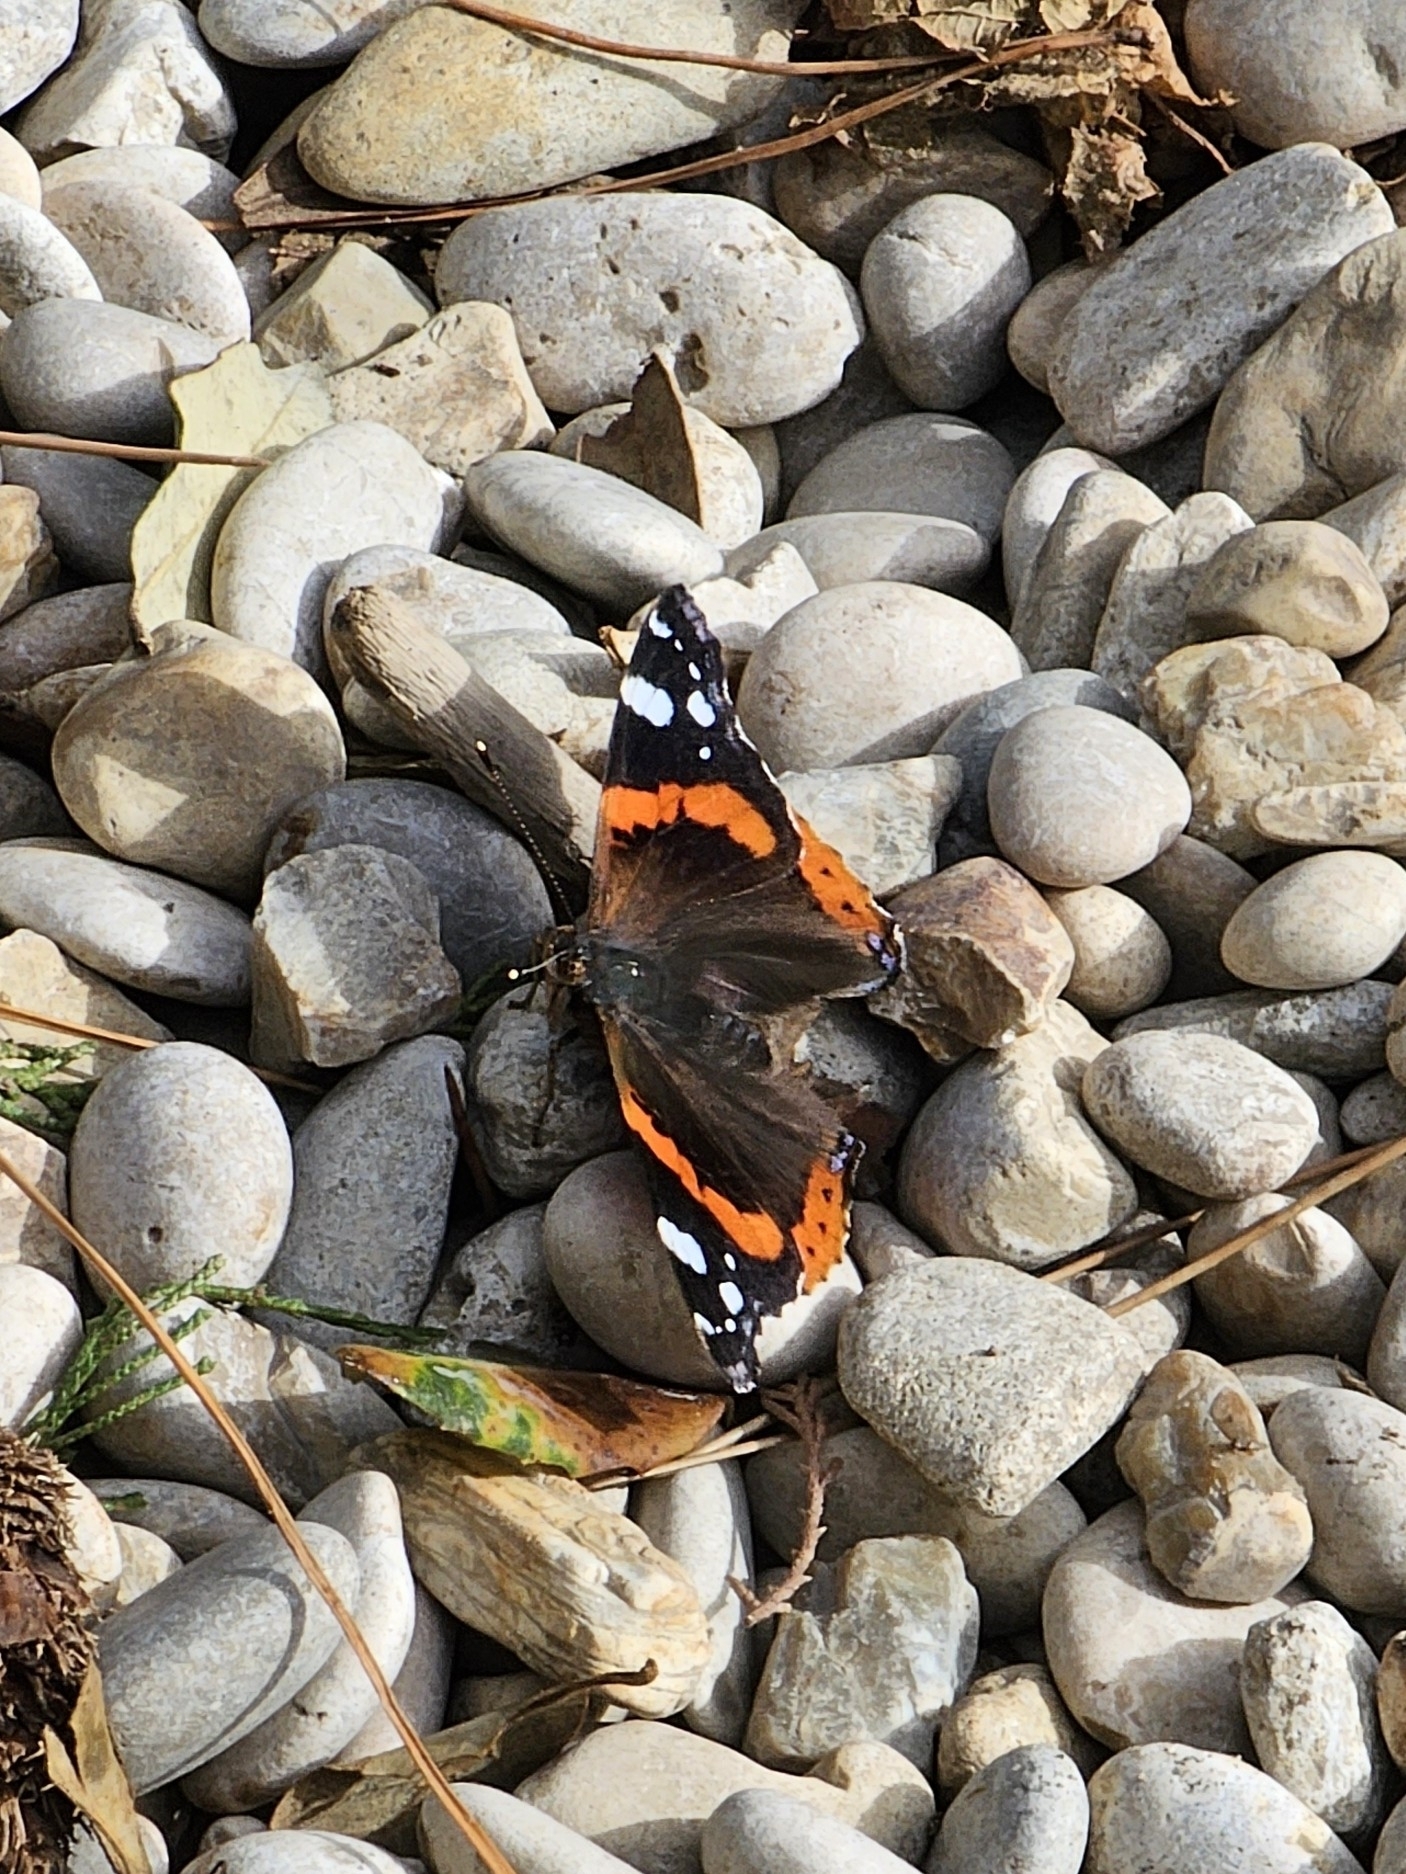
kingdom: Animalia
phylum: Arthropoda
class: Insecta
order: Lepidoptera
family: Nymphalidae
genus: Vanessa
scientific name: Vanessa atalanta
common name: Red admiral
